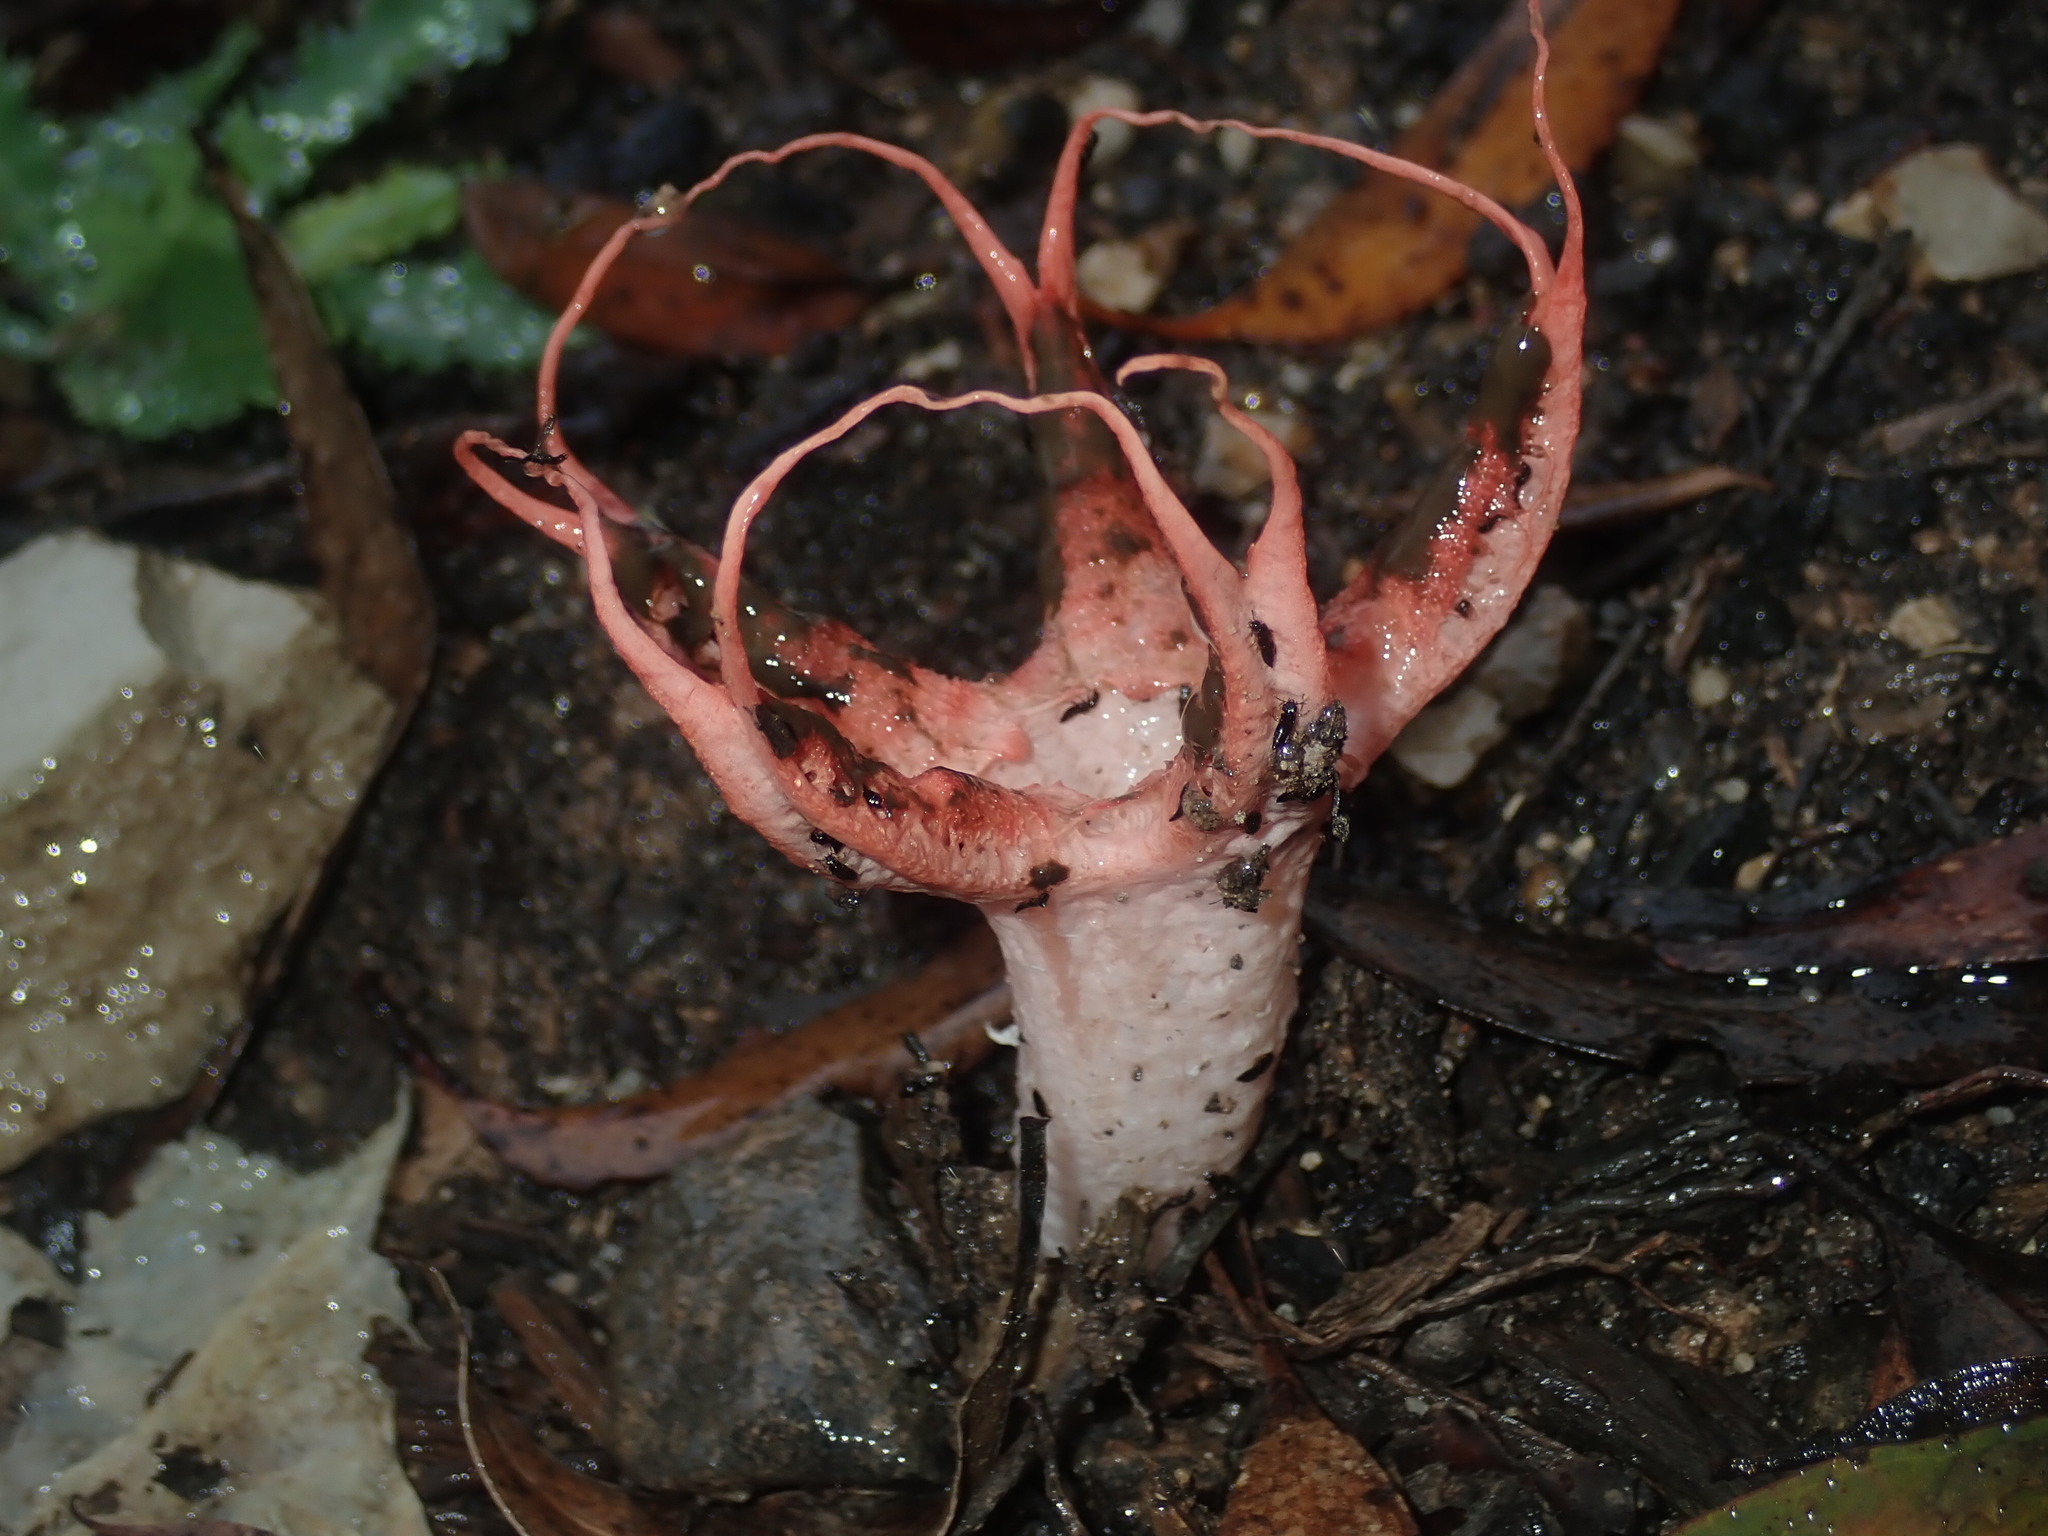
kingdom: Fungi
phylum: Basidiomycota
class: Agaricomycetes
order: Phallales
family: Phallaceae
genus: Clathrus
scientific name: Clathrus archeri
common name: Devil's fingers
